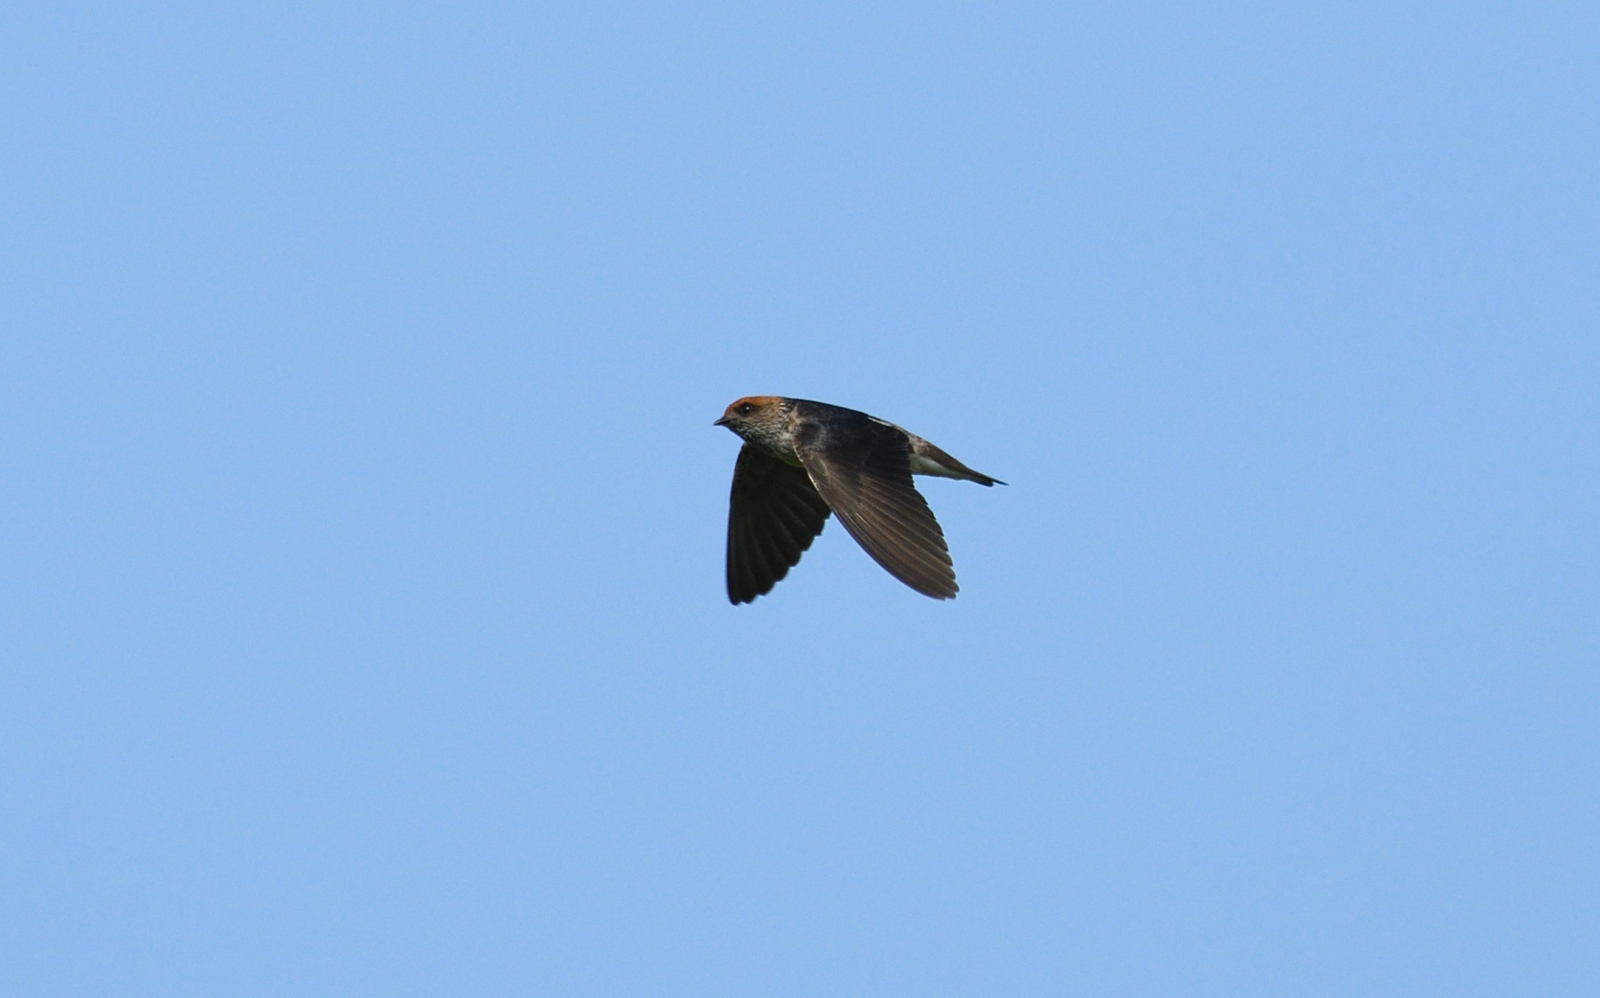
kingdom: Animalia
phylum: Chordata
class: Aves
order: Passeriformes
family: Hirundinidae
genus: Petrochelidon
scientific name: Petrochelidon fluvicola
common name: Streak-throated swallow
